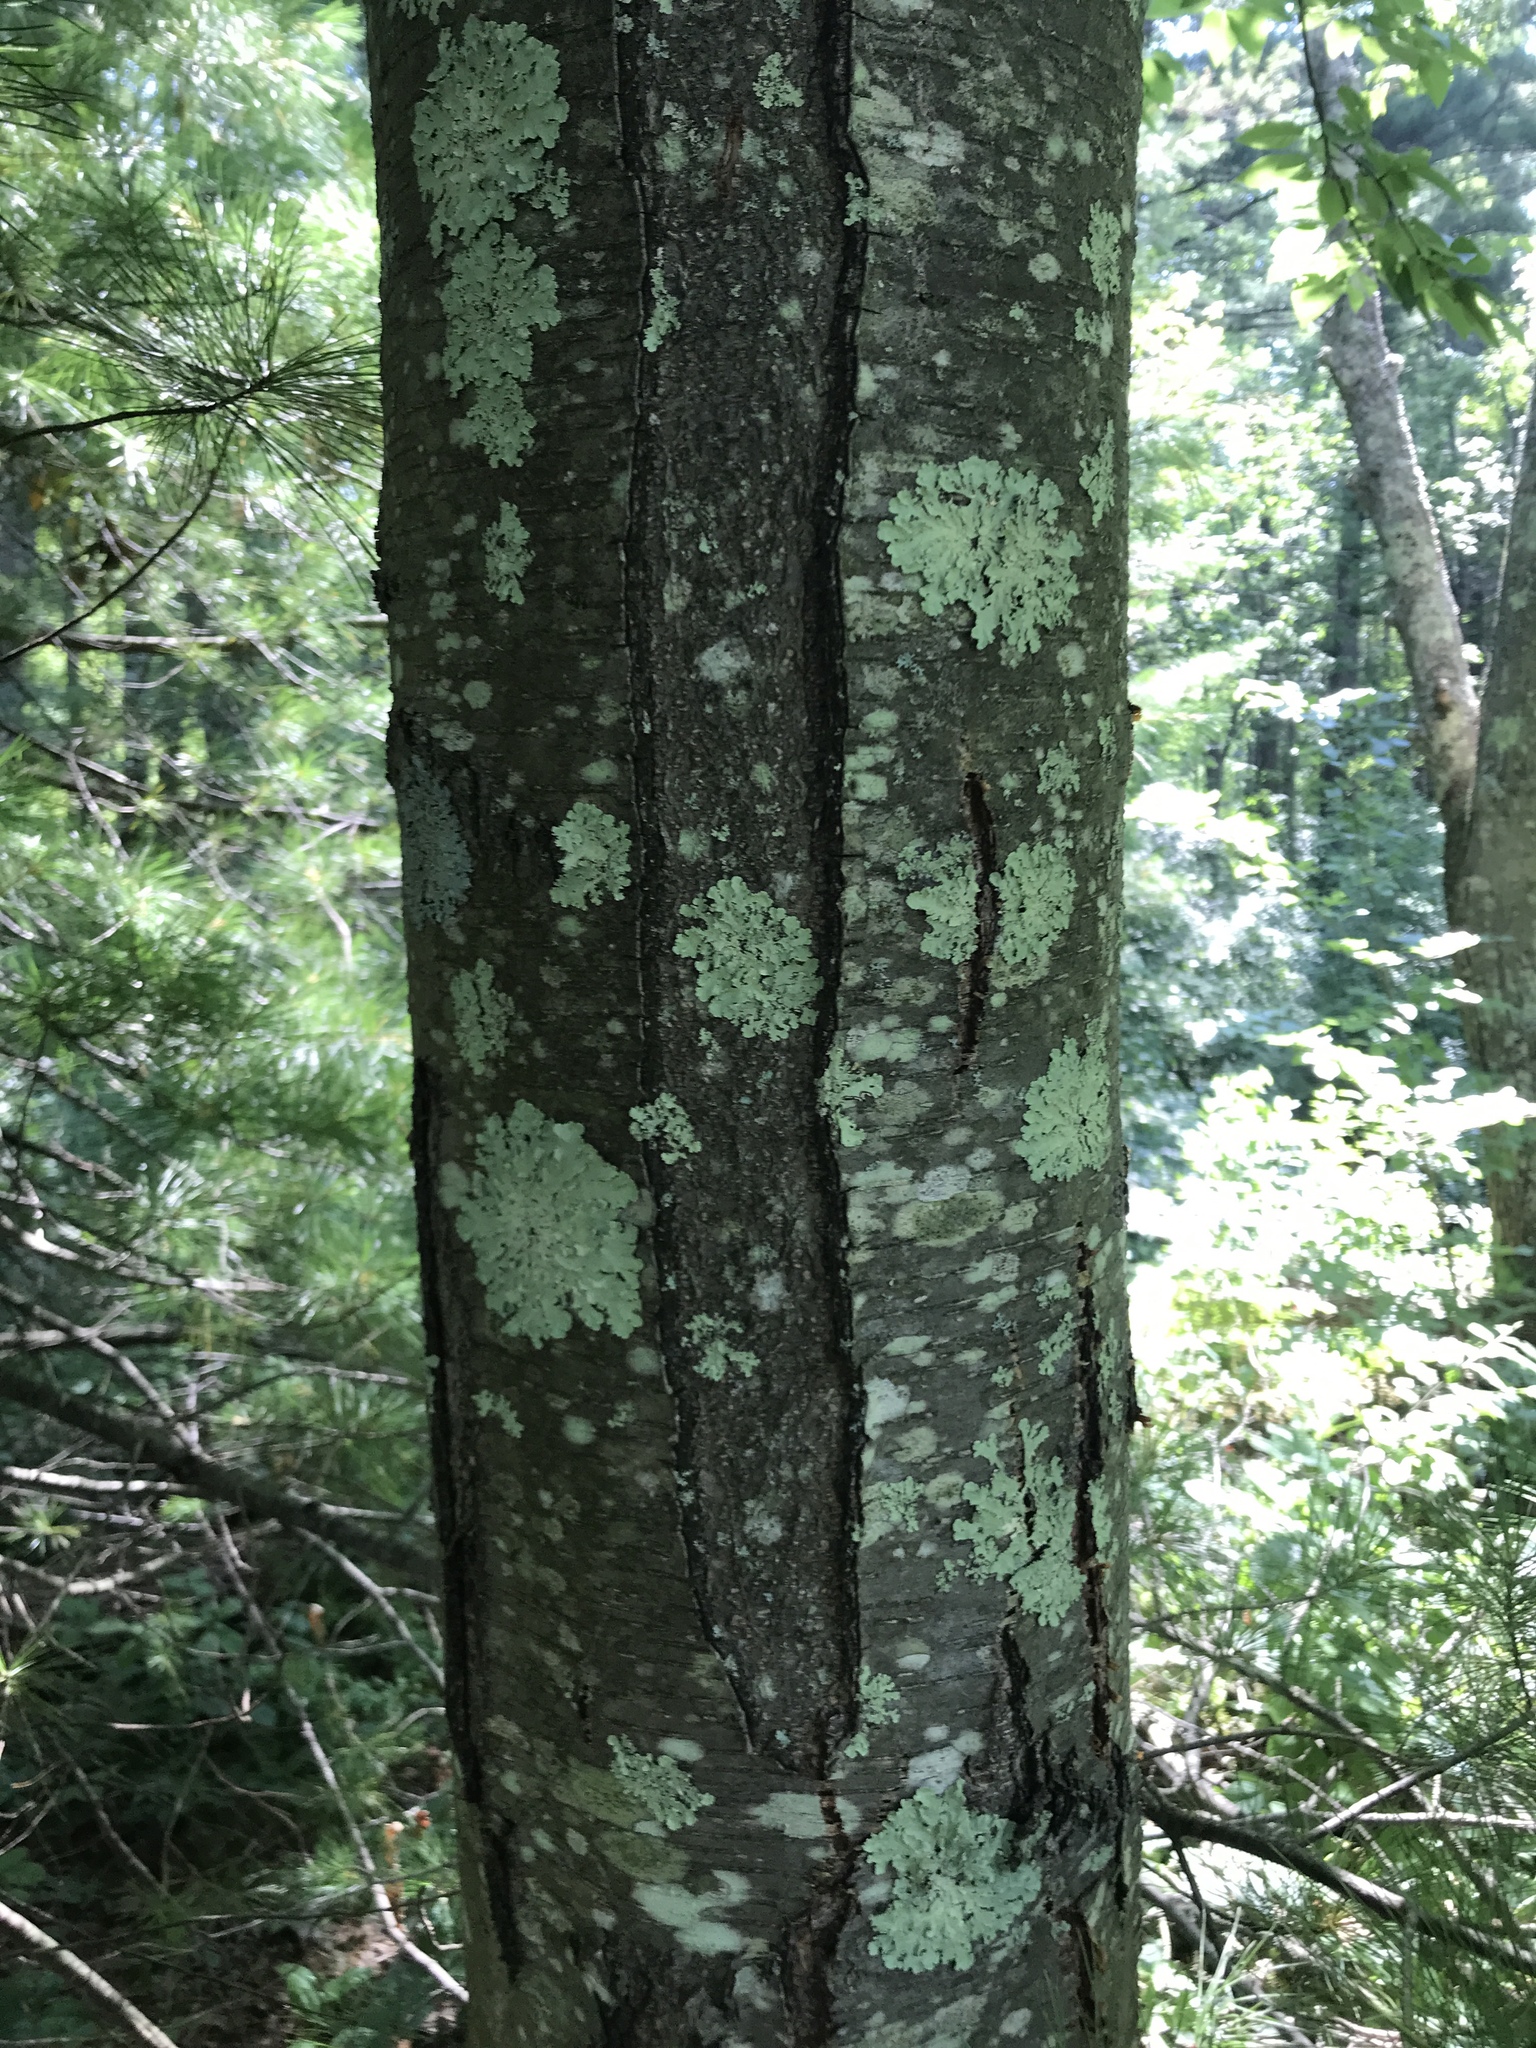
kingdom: Plantae
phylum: Tracheophyta
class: Magnoliopsida
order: Fagales
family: Betulaceae
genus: Betula
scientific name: Betula lenta
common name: Black birch
